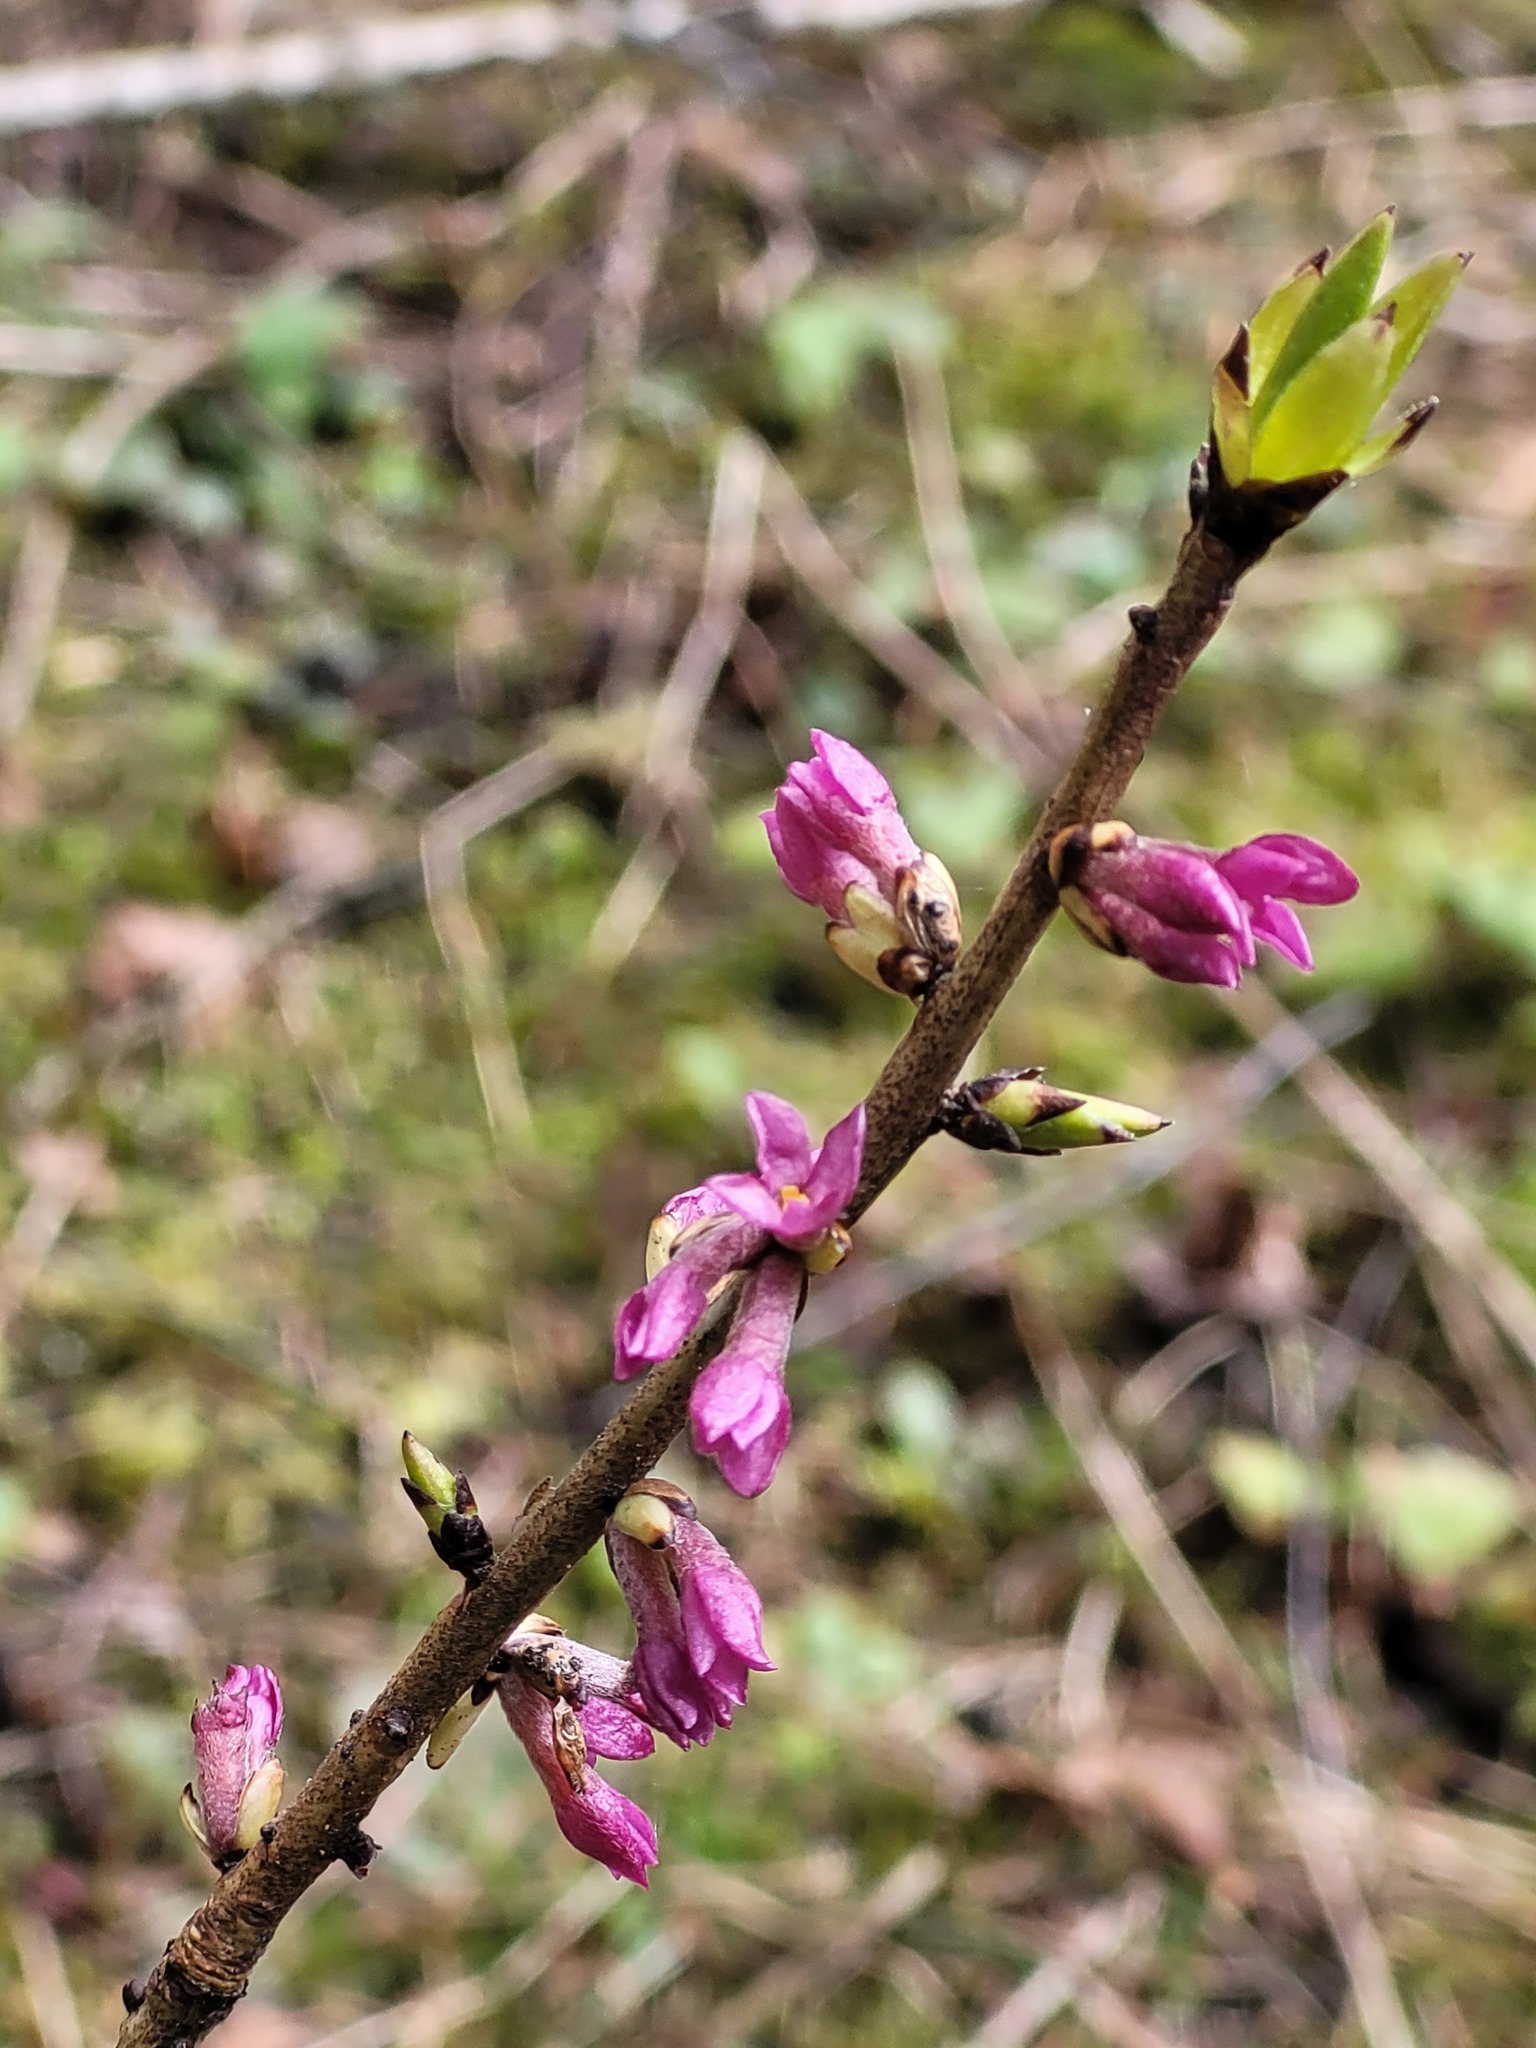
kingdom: Plantae
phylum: Tracheophyta
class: Magnoliopsida
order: Malvales
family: Thymelaeaceae
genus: Daphne
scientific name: Daphne mezereum
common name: Mezereon
